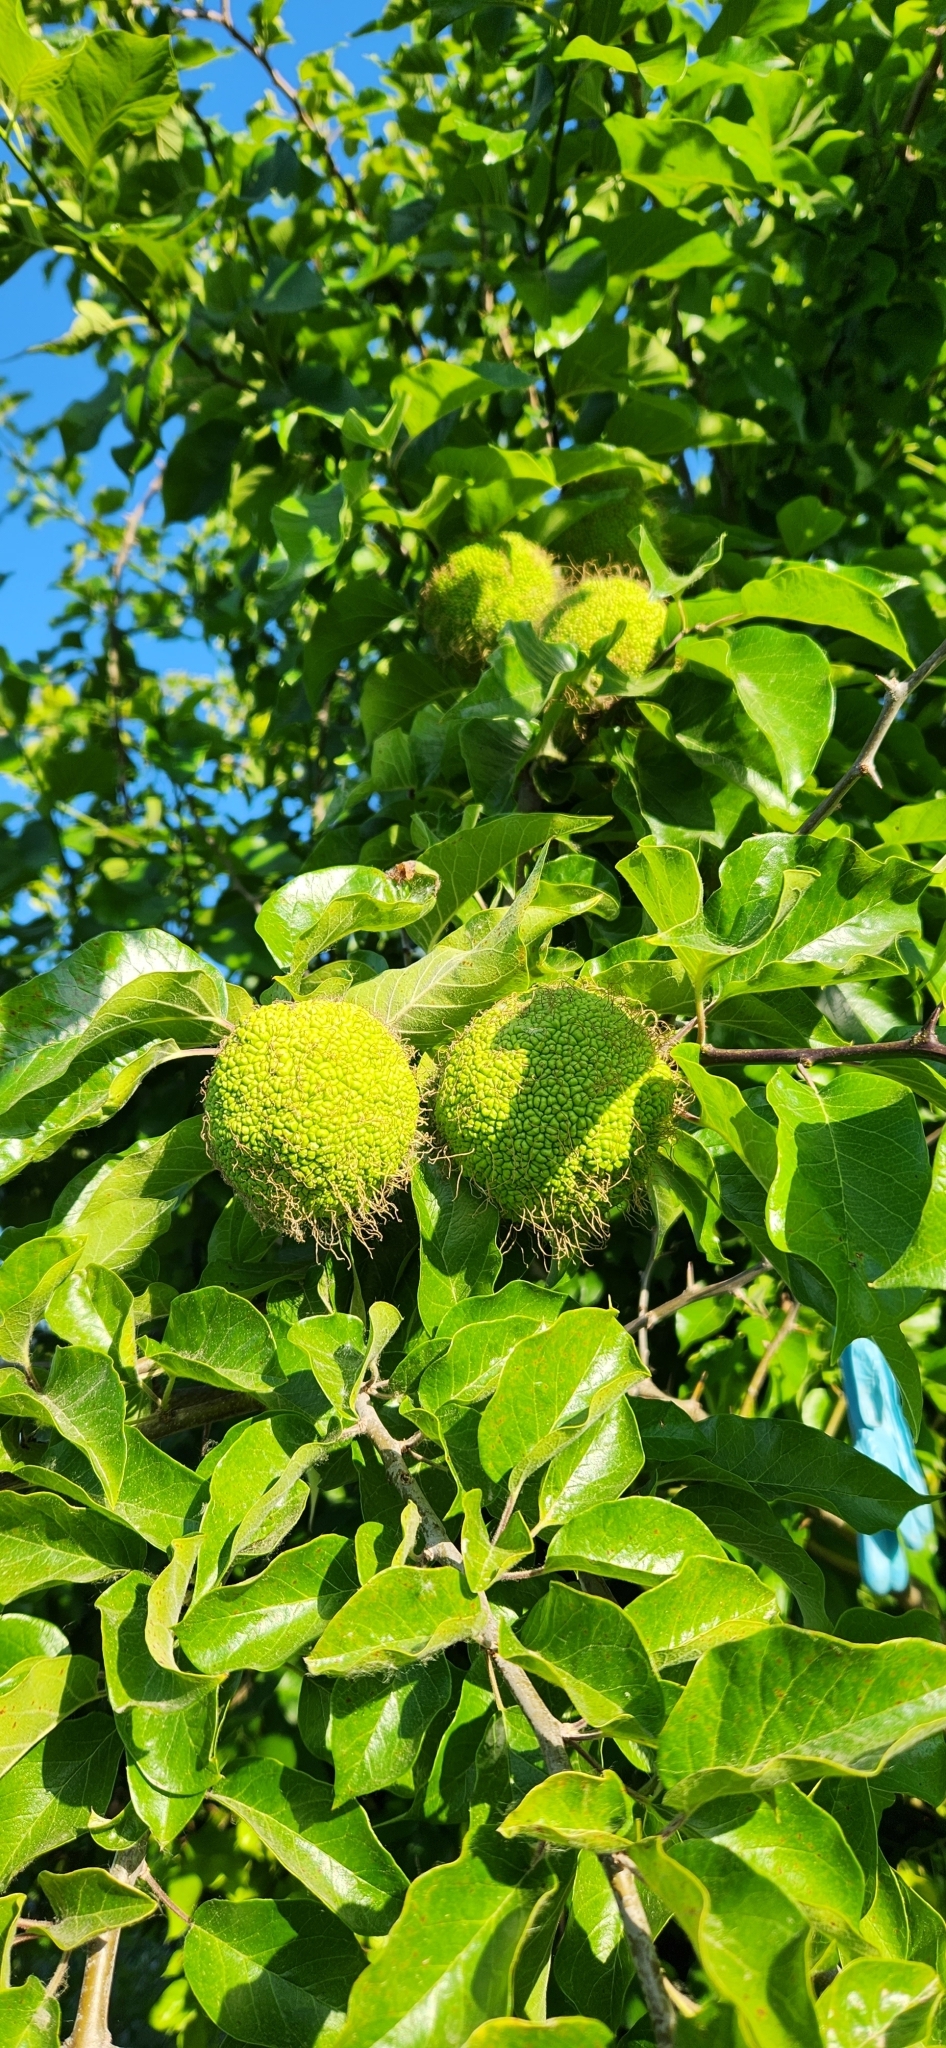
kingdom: Plantae
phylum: Tracheophyta
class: Magnoliopsida
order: Rosales
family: Moraceae
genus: Maclura
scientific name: Maclura pomifera
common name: Osage-orange
